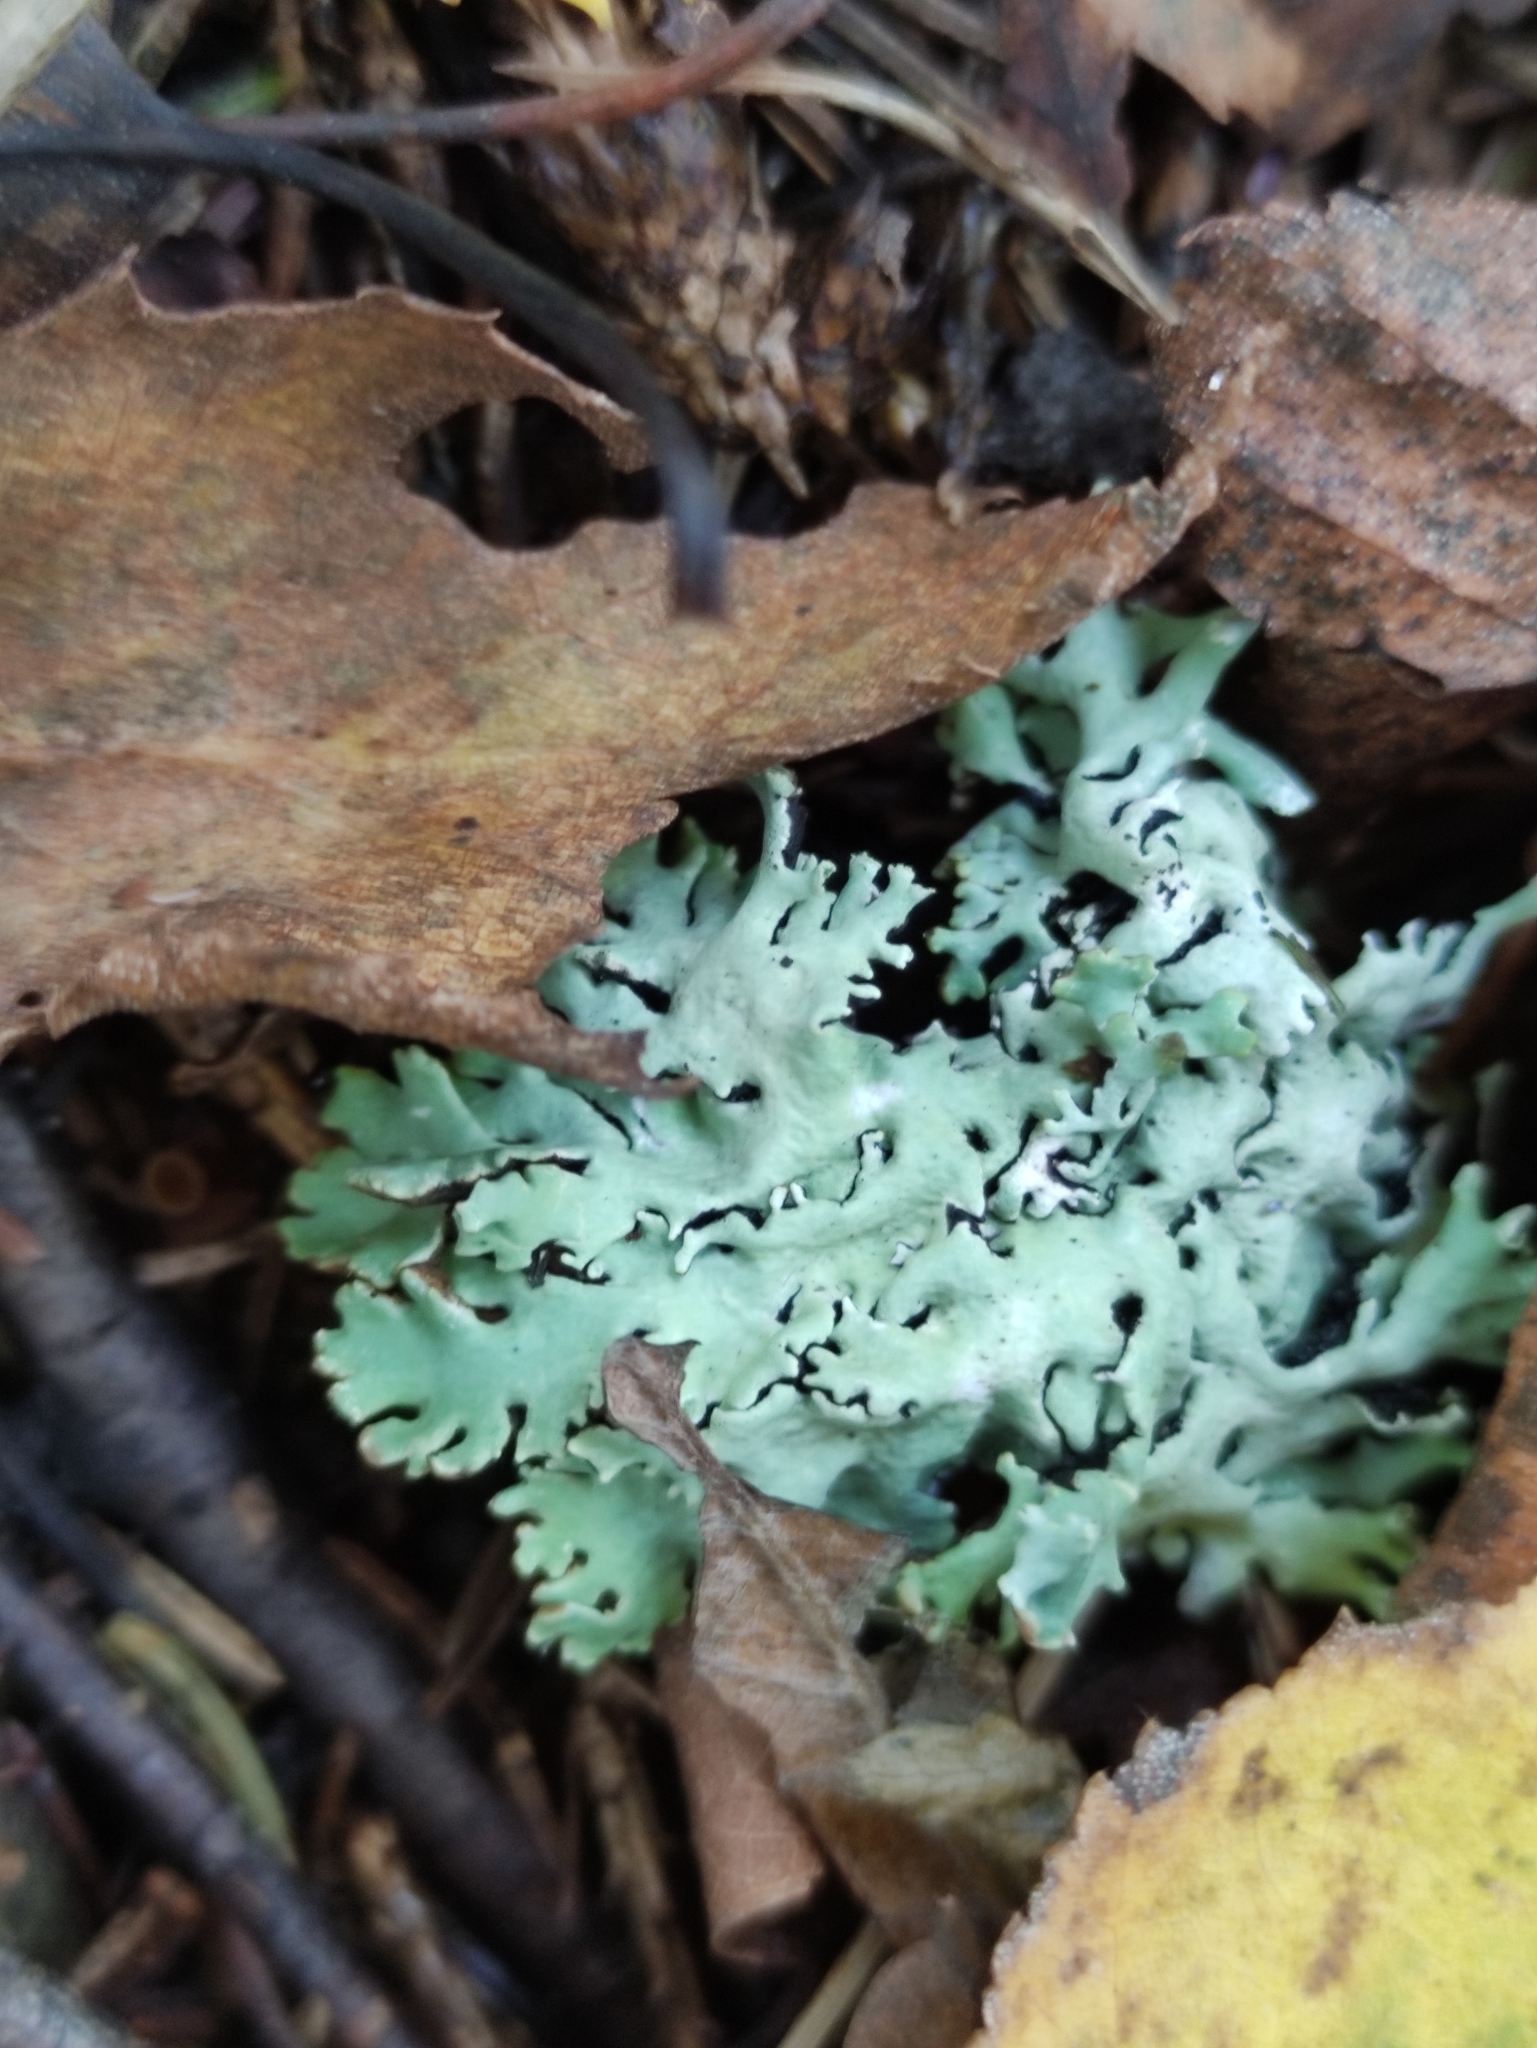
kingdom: Fungi
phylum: Ascomycota
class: Lecanoromycetes
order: Lecanorales
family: Parmeliaceae
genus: Hypogymnia
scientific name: Hypogymnia physodes
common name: Dark crottle
